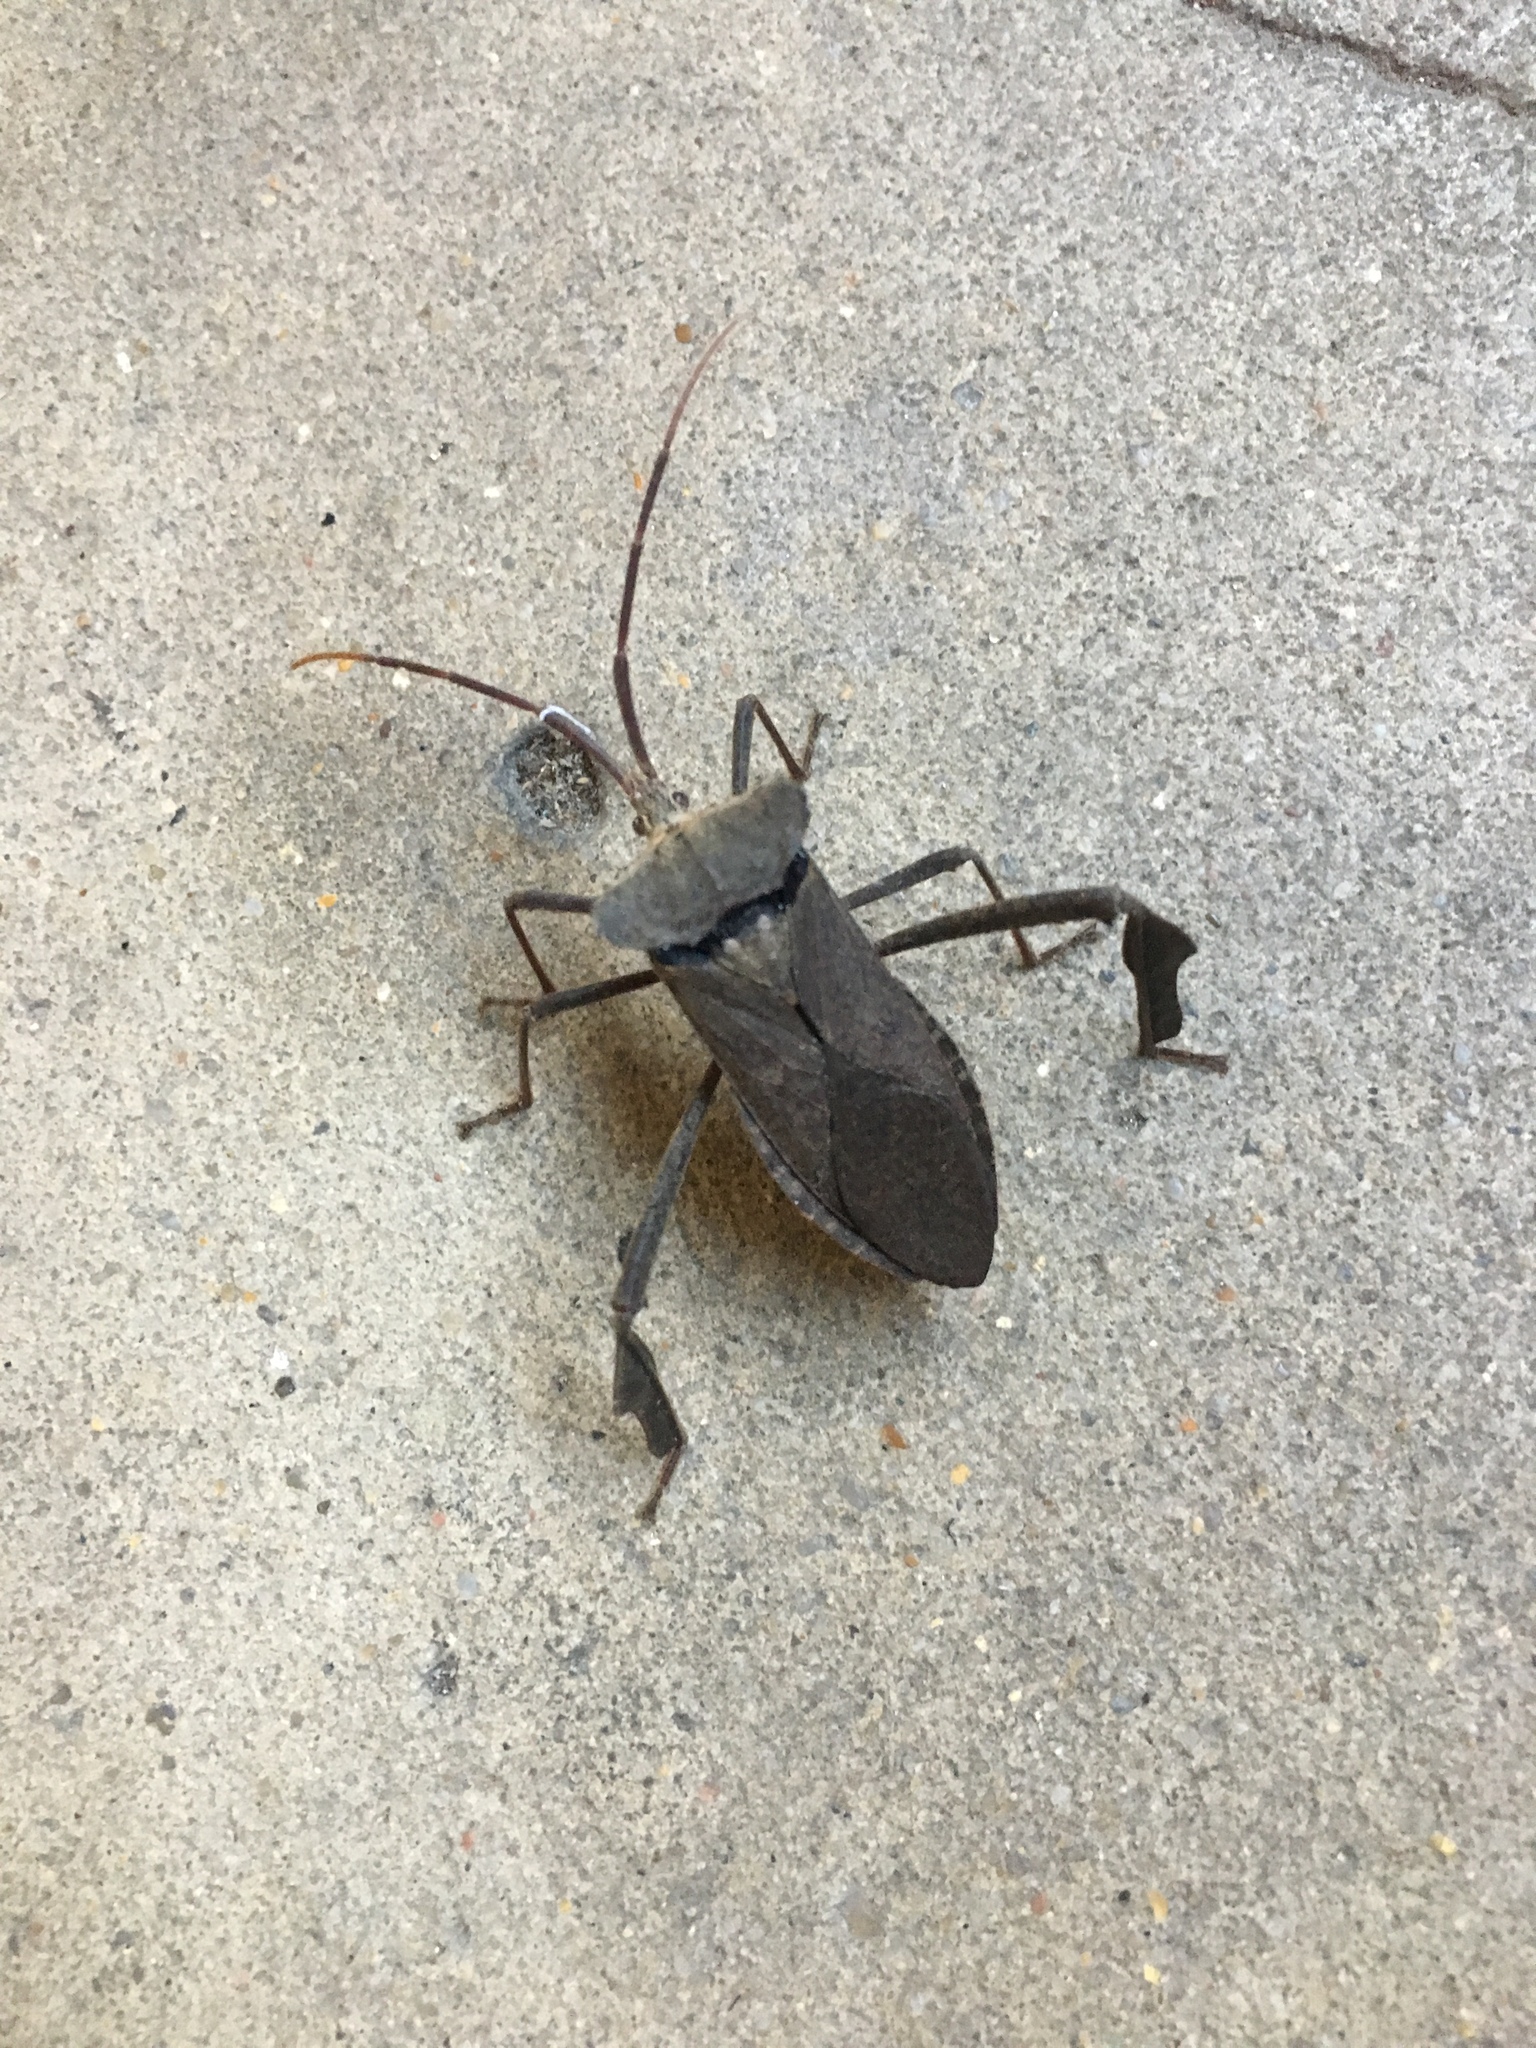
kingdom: Animalia
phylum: Arthropoda
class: Insecta
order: Hemiptera
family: Coreidae
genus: Acanthocephala
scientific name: Acanthocephala declivis
